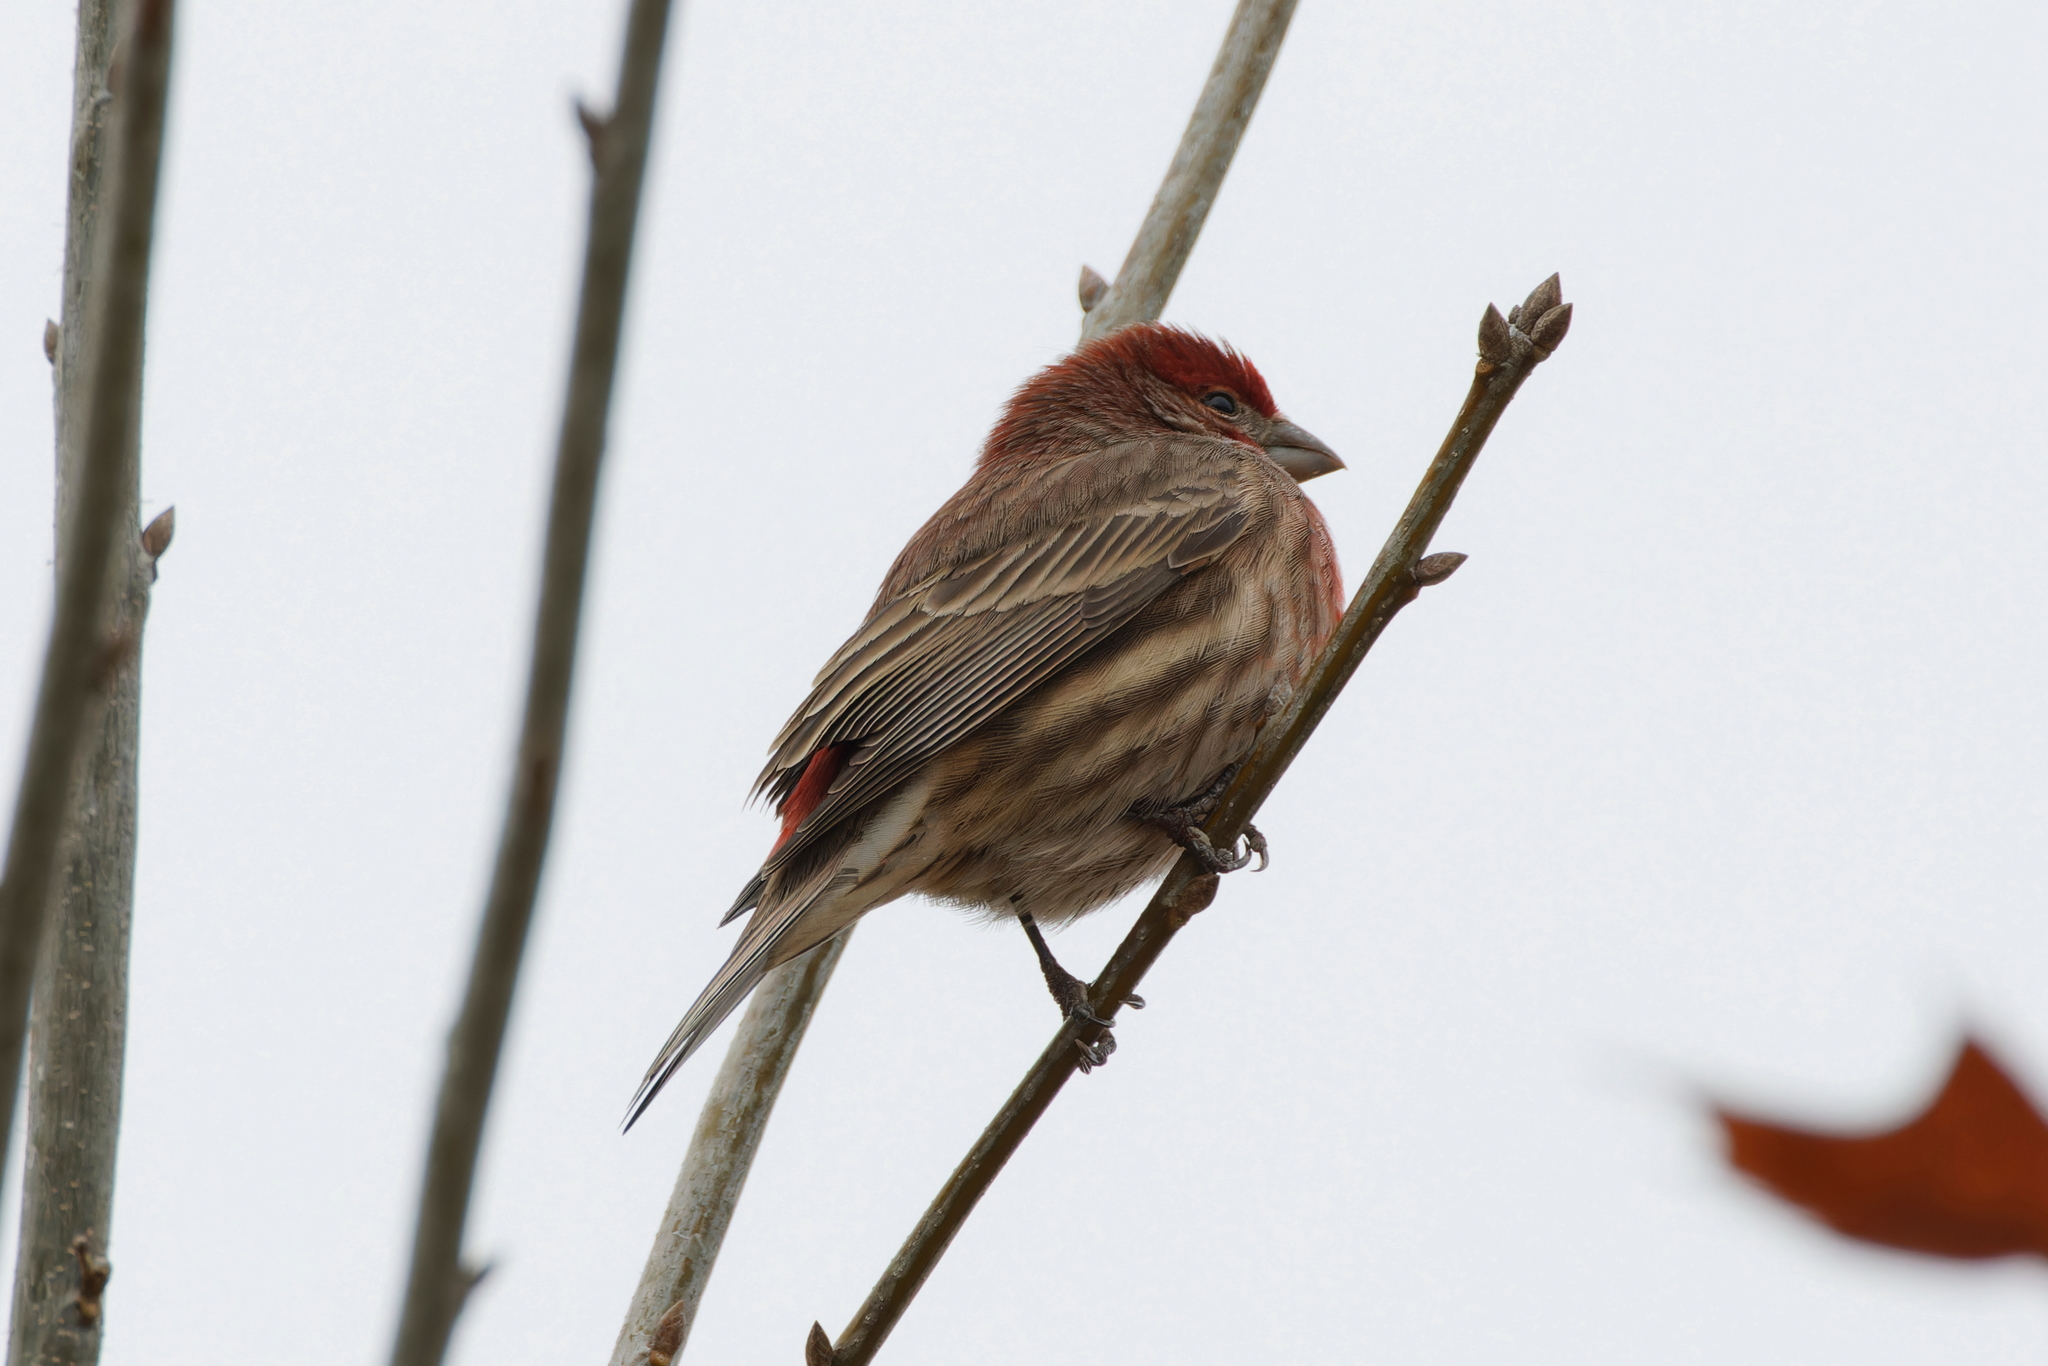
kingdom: Animalia
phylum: Chordata
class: Aves
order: Passeriformes
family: Fringillidae
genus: Haemorhous
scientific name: Haemorhous mexicanus
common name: House finch
